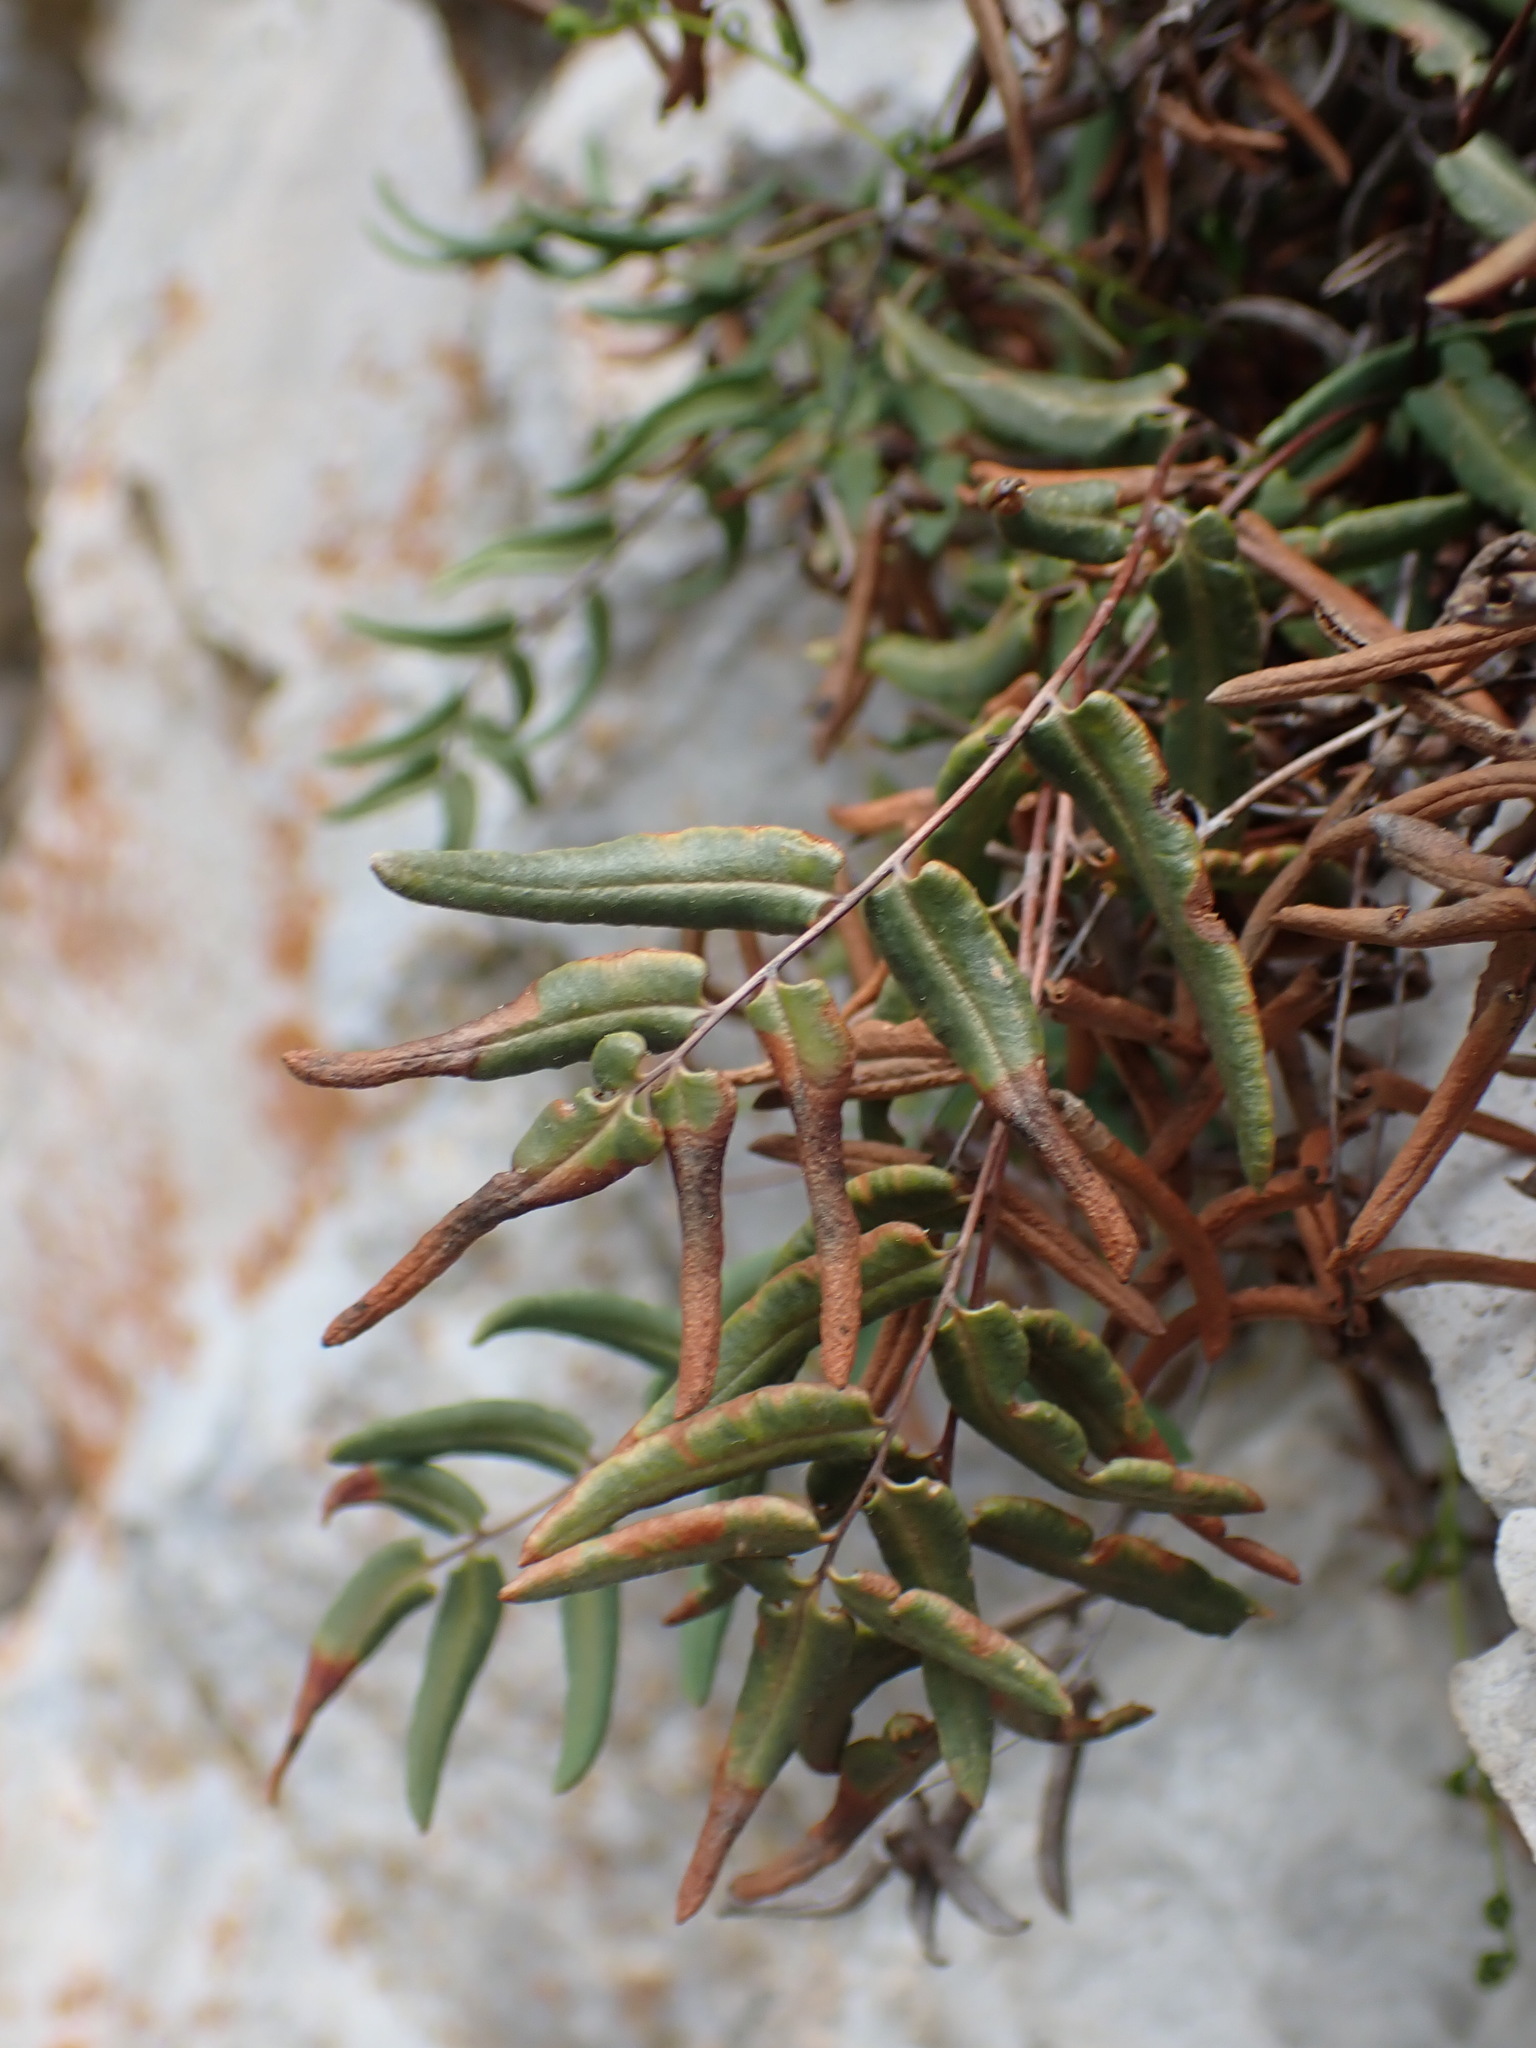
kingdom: Plantae
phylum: Tracheophyta
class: Polypodiopsida
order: Polypodiales
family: Pteridaceae
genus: Pellaea
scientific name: Pellaea glabella
